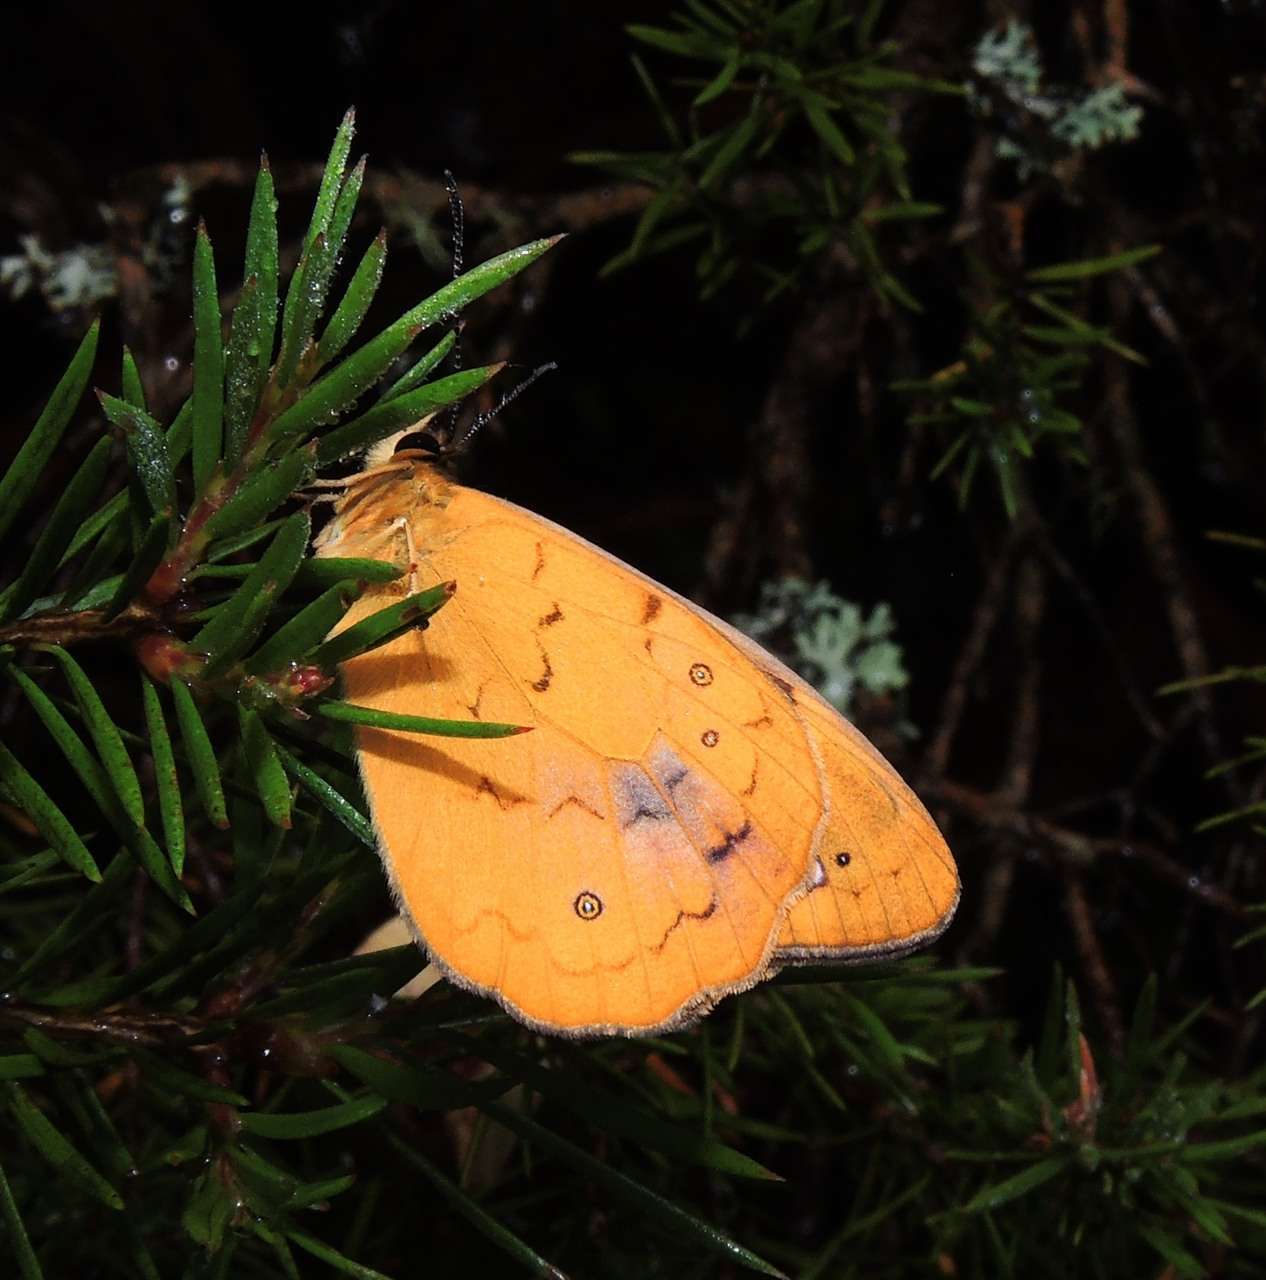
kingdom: Animalia
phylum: Arthropoda
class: Insecta
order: Lepidoptera
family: Nymphalidae
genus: Heteronympha
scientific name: Heteronympha solandri
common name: Solander's brown
